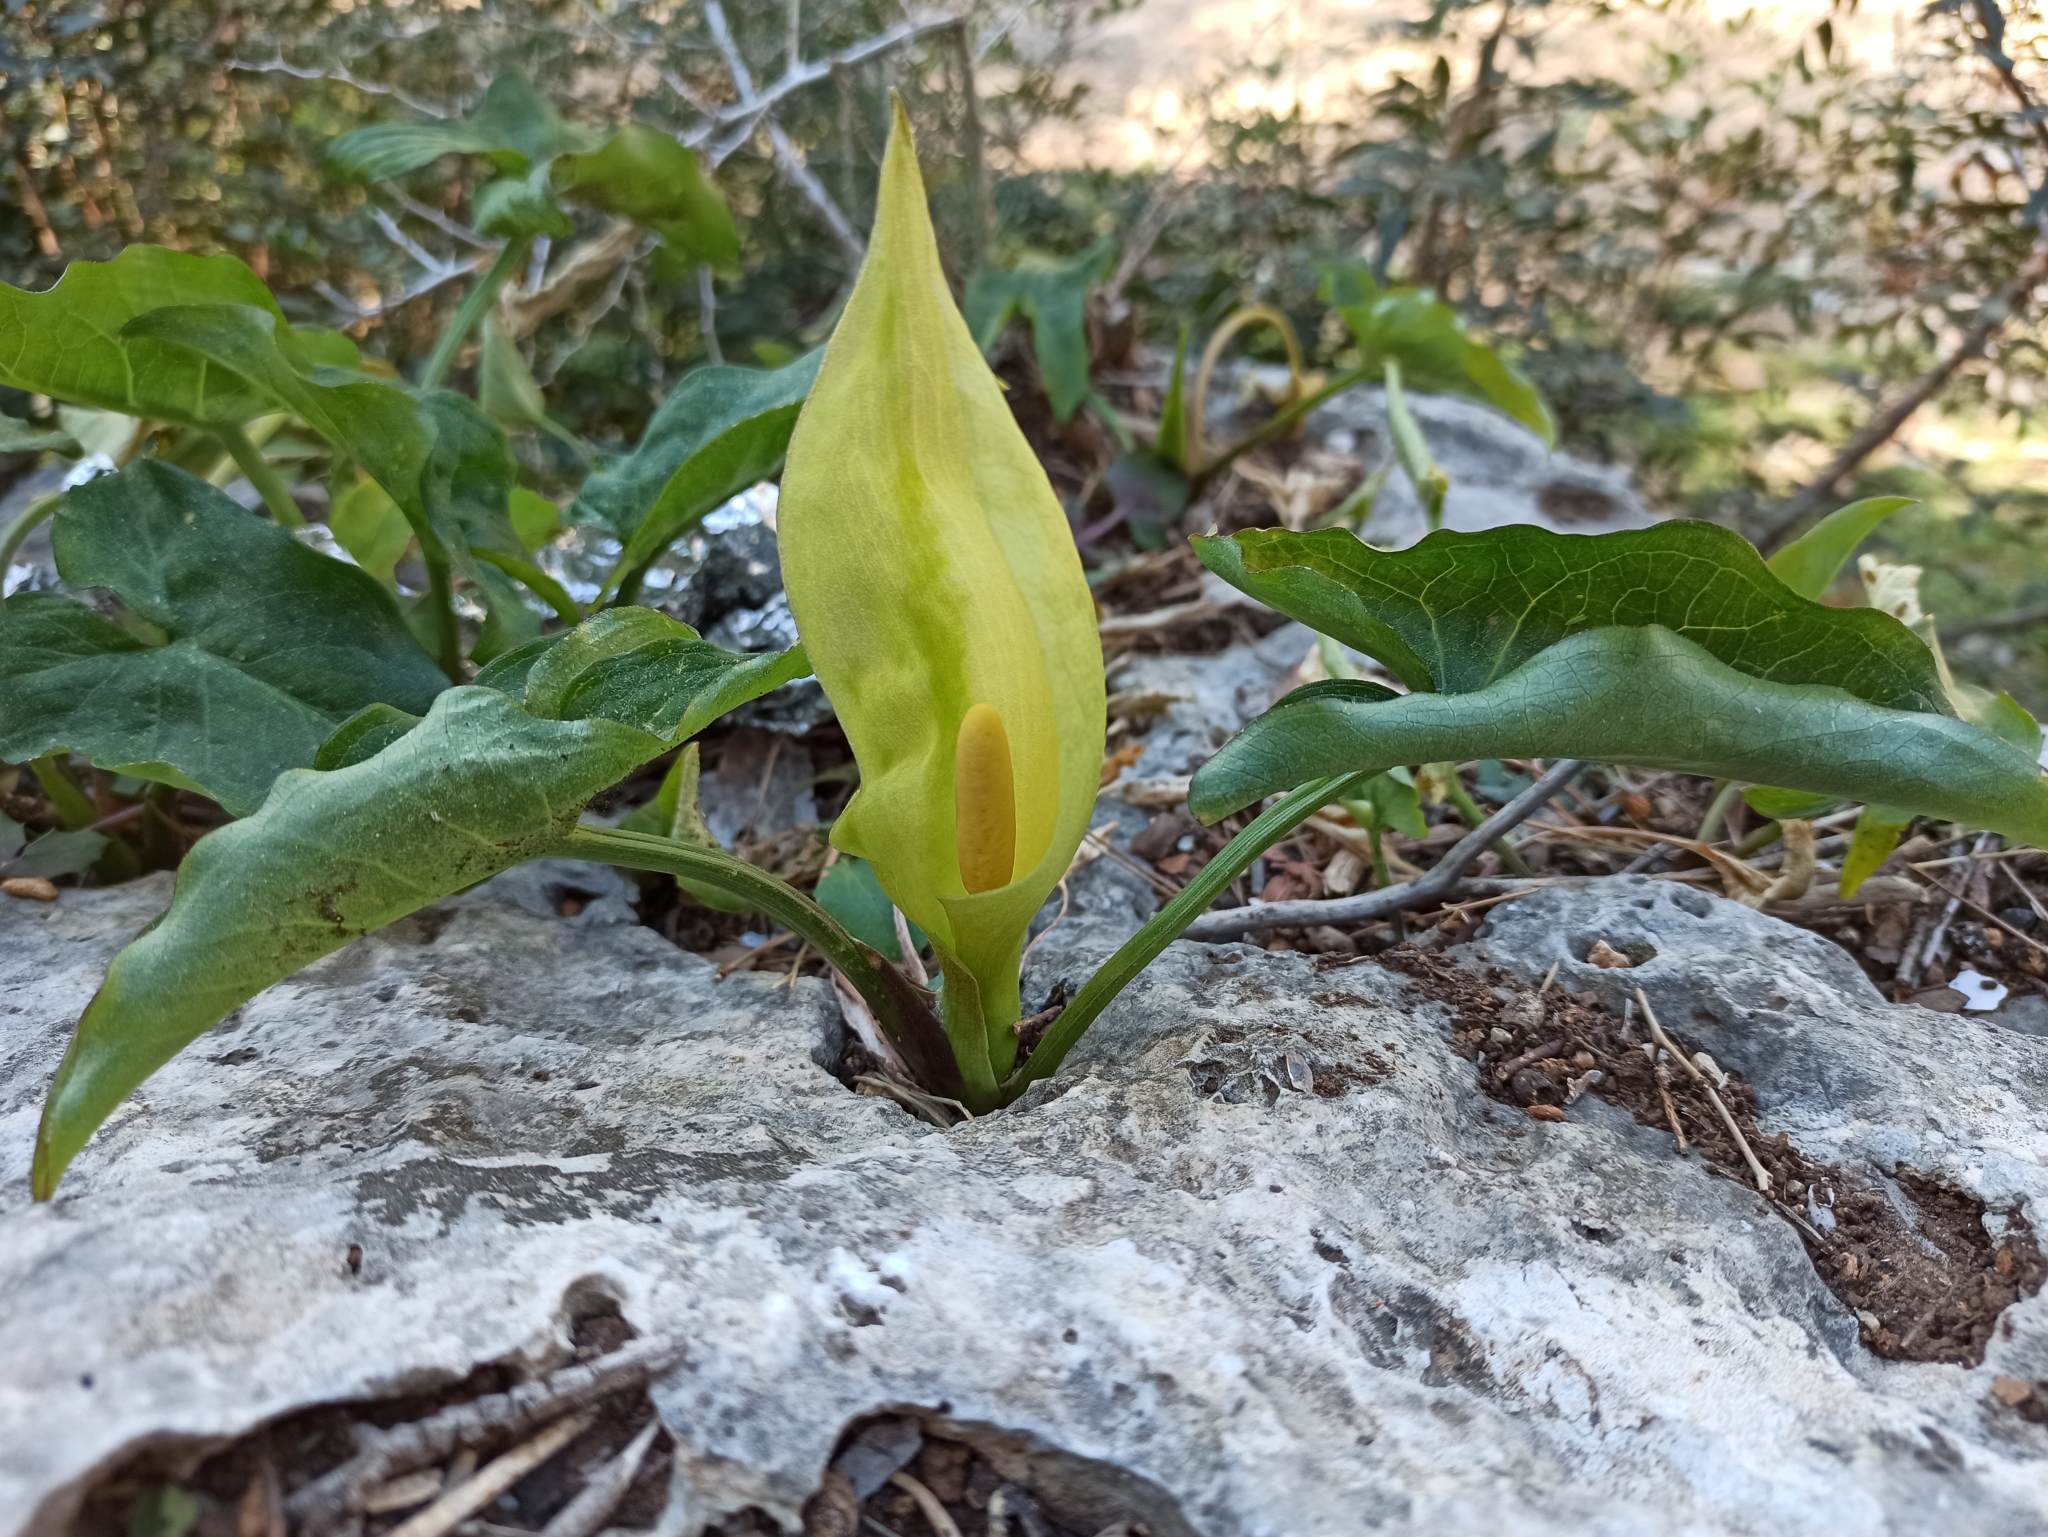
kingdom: Plantae
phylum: Tracheophyta
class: Liliopsida
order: Alismatales
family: Araceae
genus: Arum
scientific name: Arum italicum
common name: Italian lords-and-ladies
